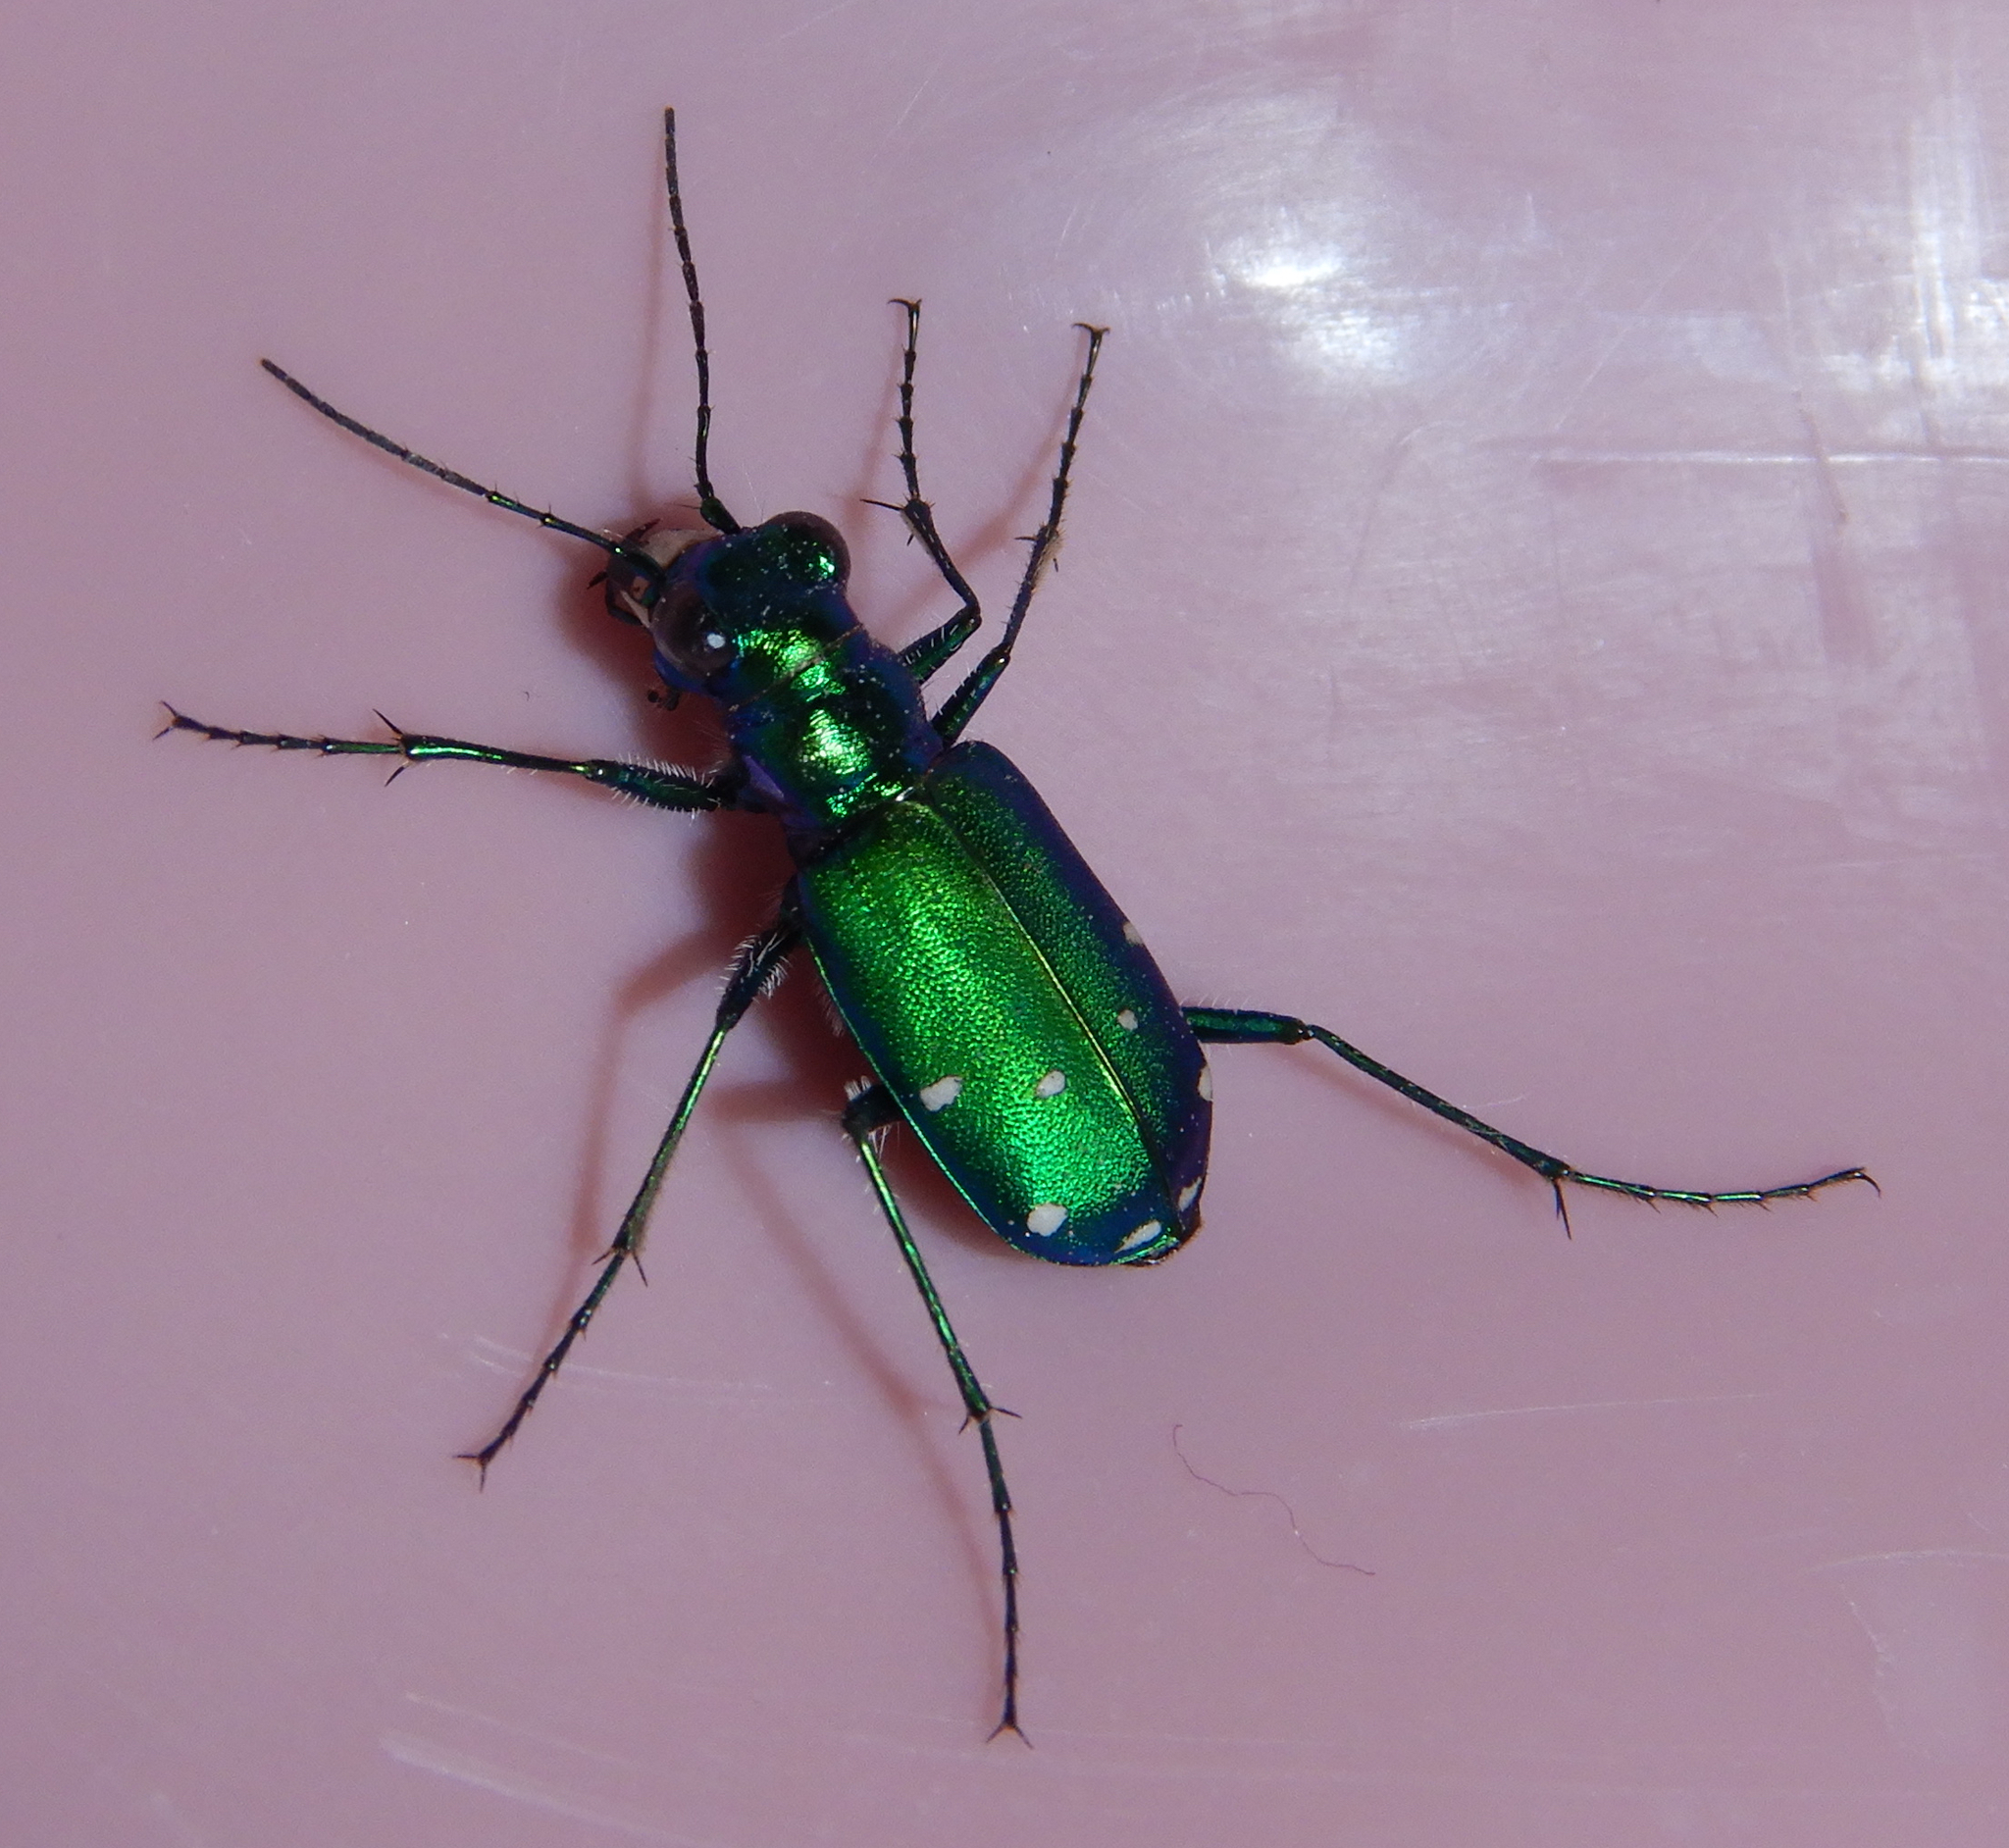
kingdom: Animalia
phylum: Arthropoda
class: Insecta
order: Coleoptera
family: Carabidae
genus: Cicindela
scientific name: Cicindela sexguttata
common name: Six-spotted tiger beetle
